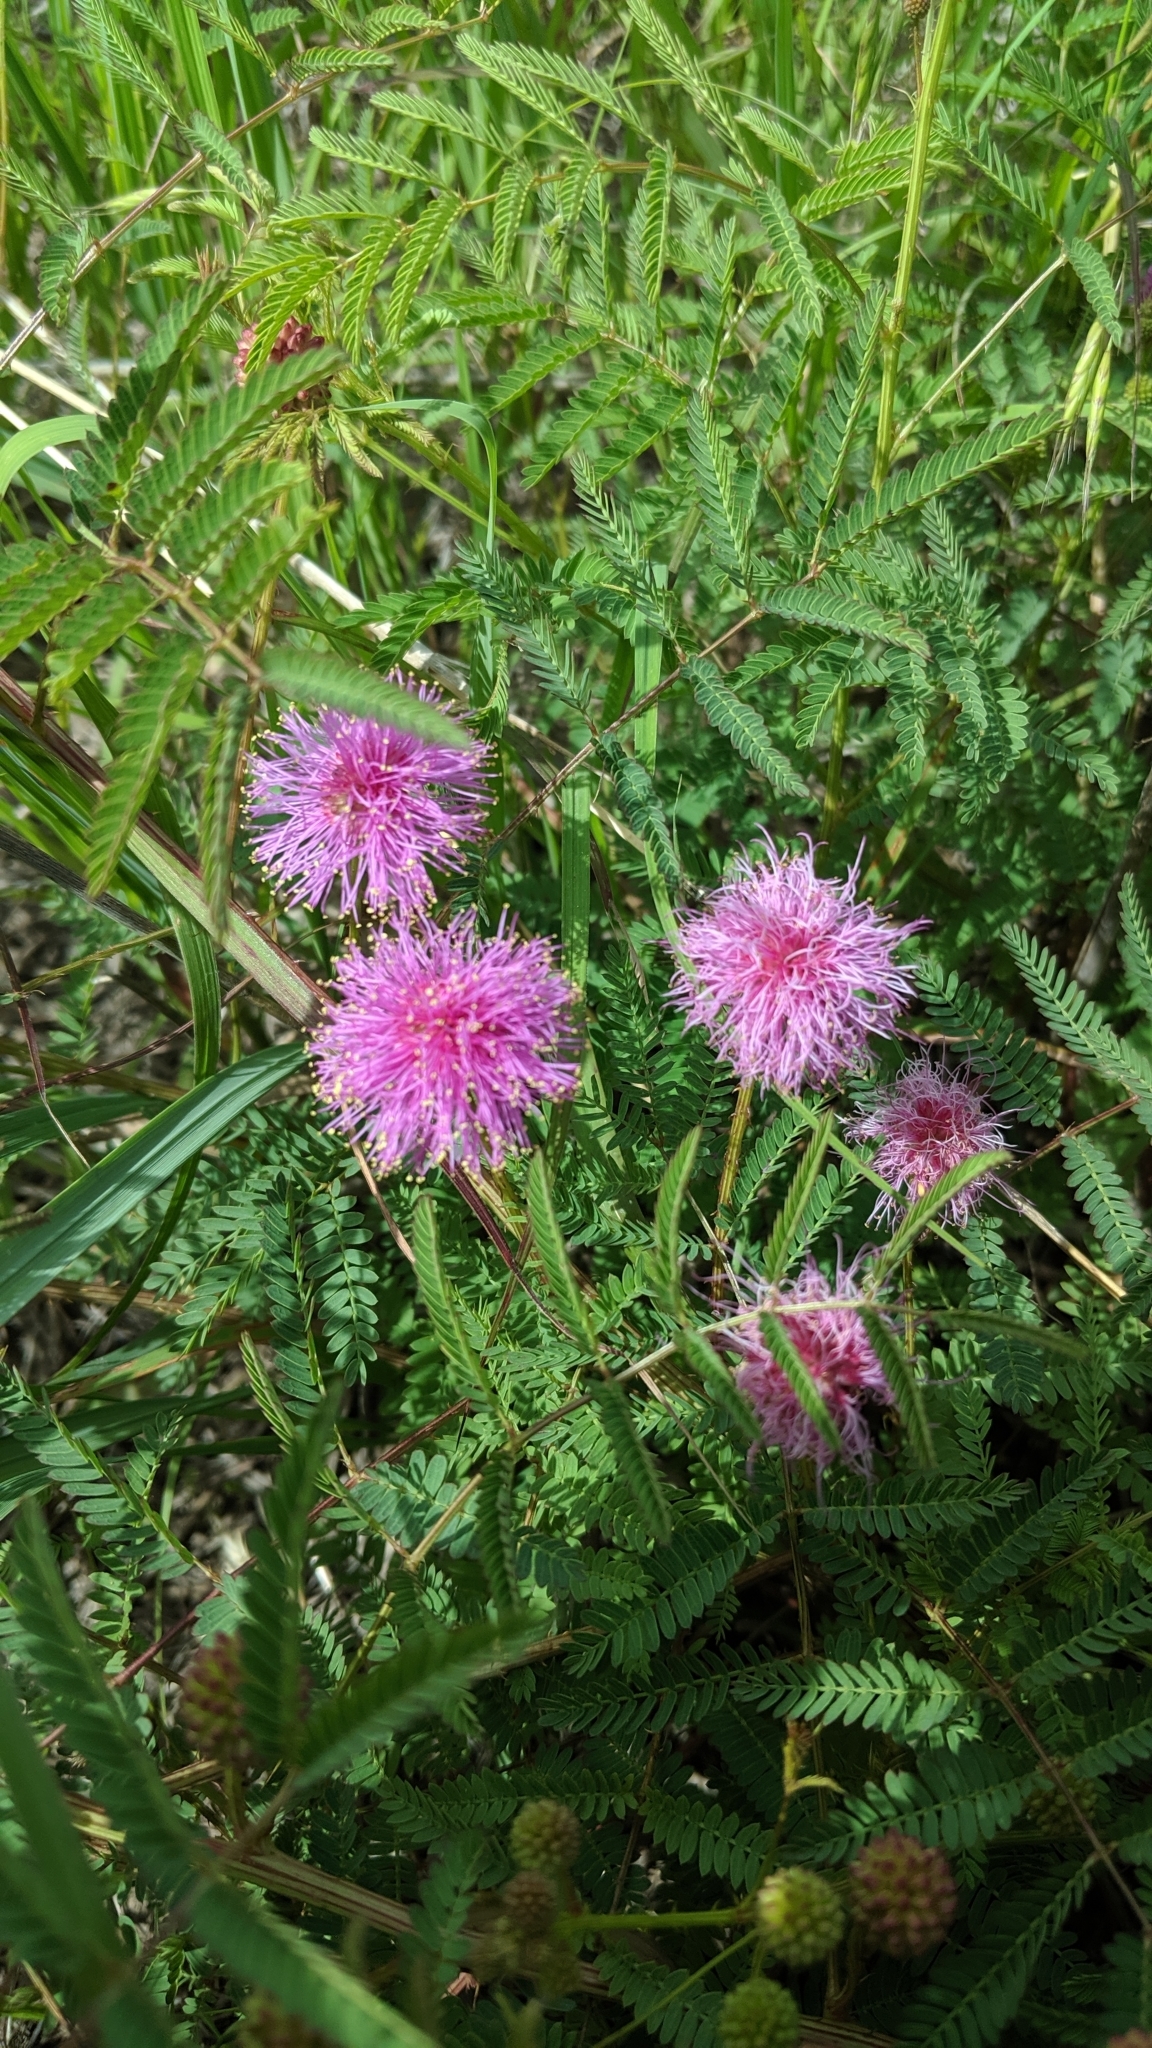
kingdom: Plantae
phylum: Tracheophyta
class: Magnoliopsida
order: Fabales
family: Fabaceae
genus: Mimosa
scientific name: Mimosa quadrivalvis
